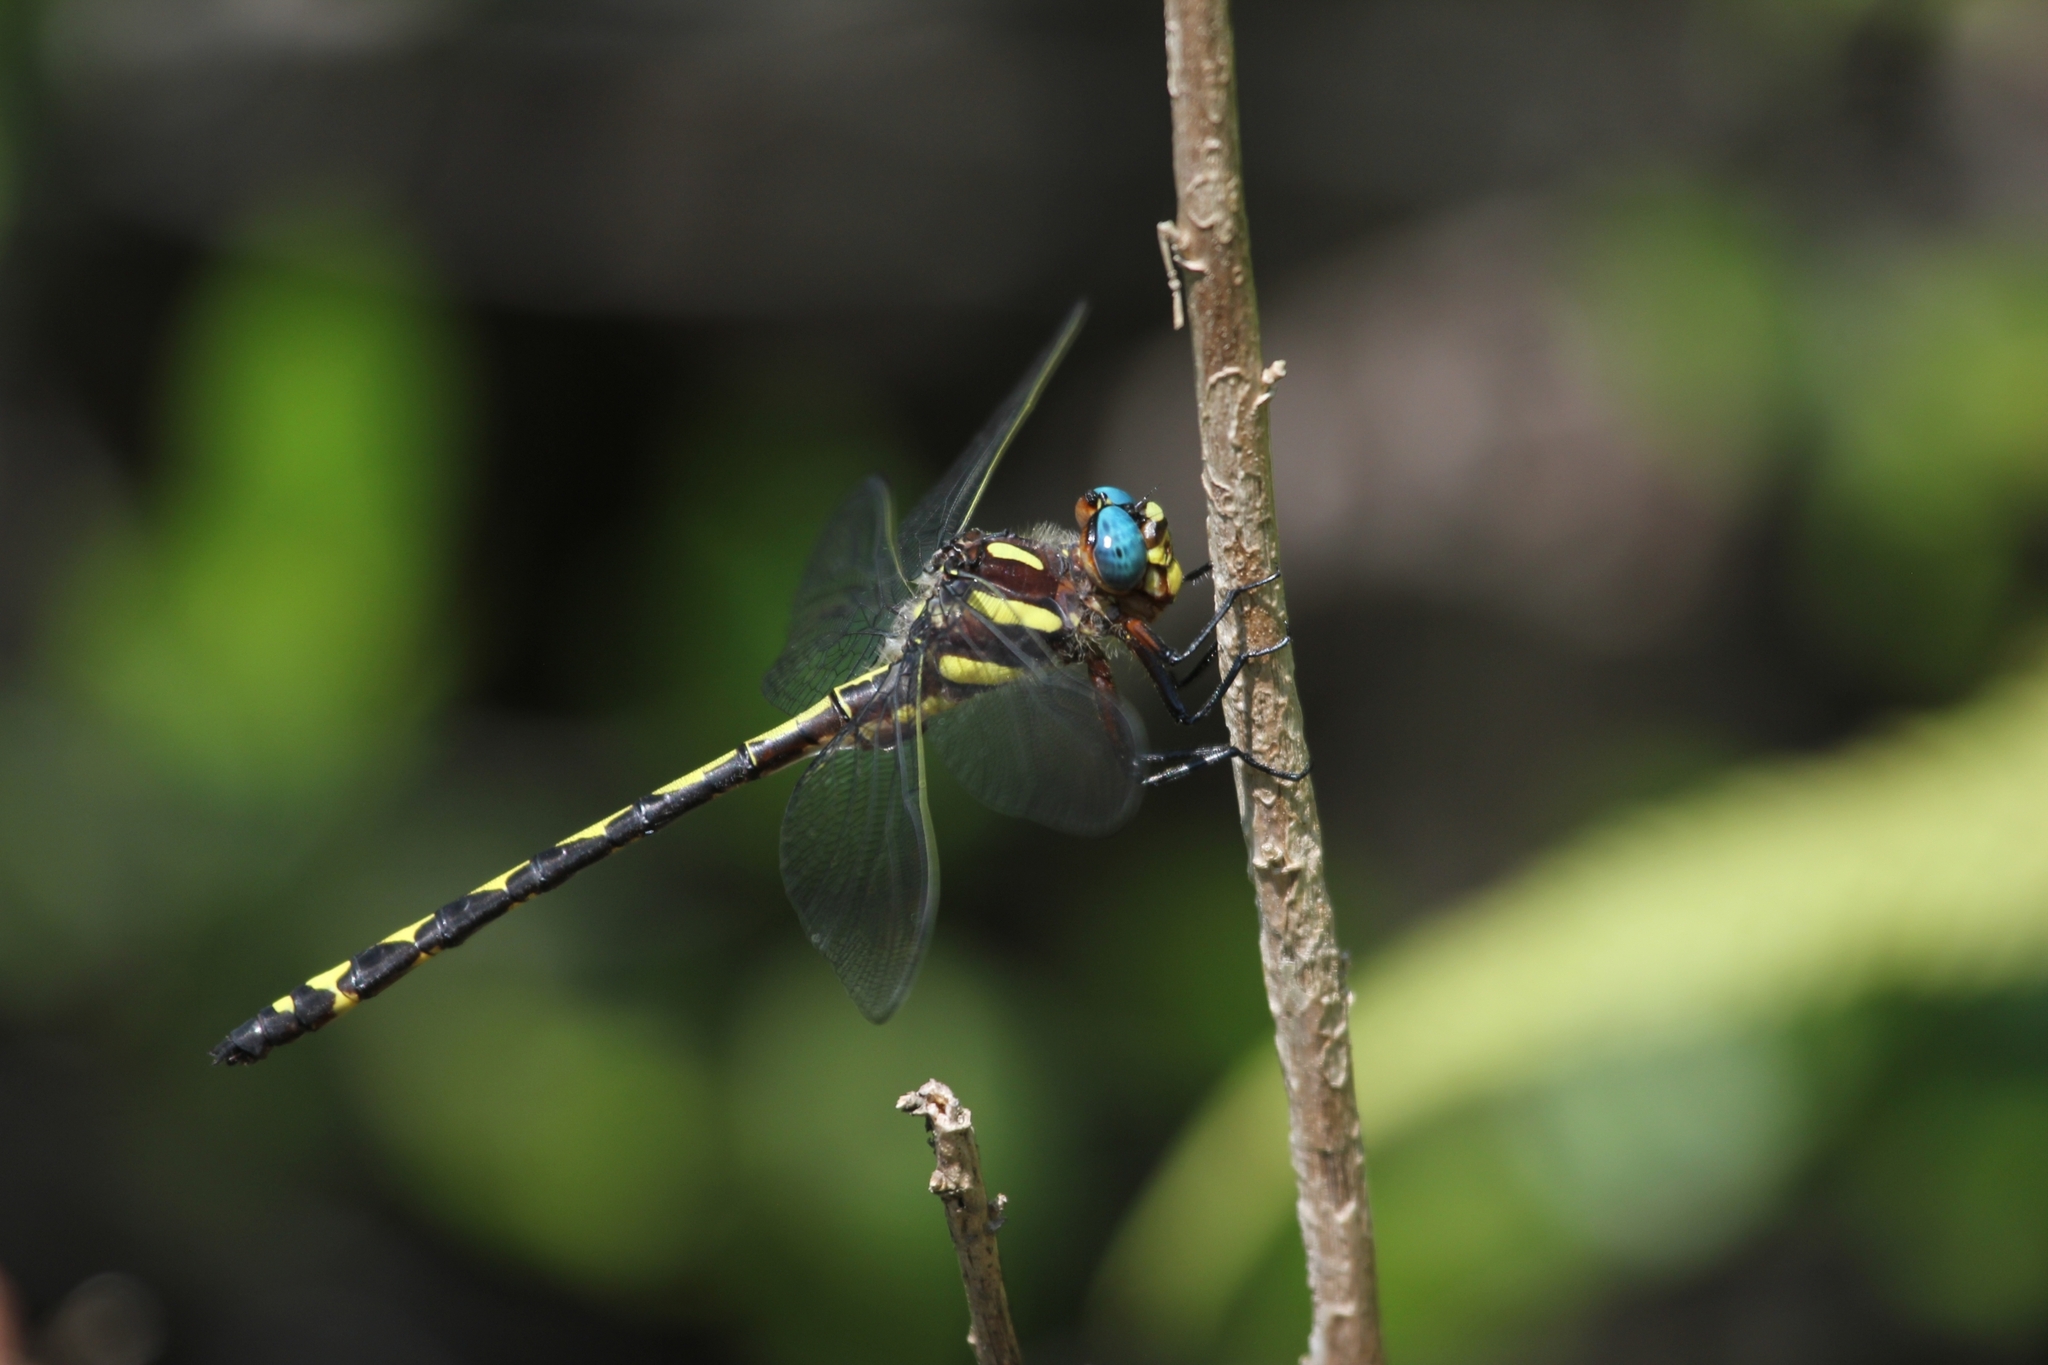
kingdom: Animalia
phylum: Arthropoda
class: Insecta
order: Odonata
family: Cordulegastridae
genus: Cordulegaster
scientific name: Cordulegaster obliqua
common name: Arrowhead spiketail
